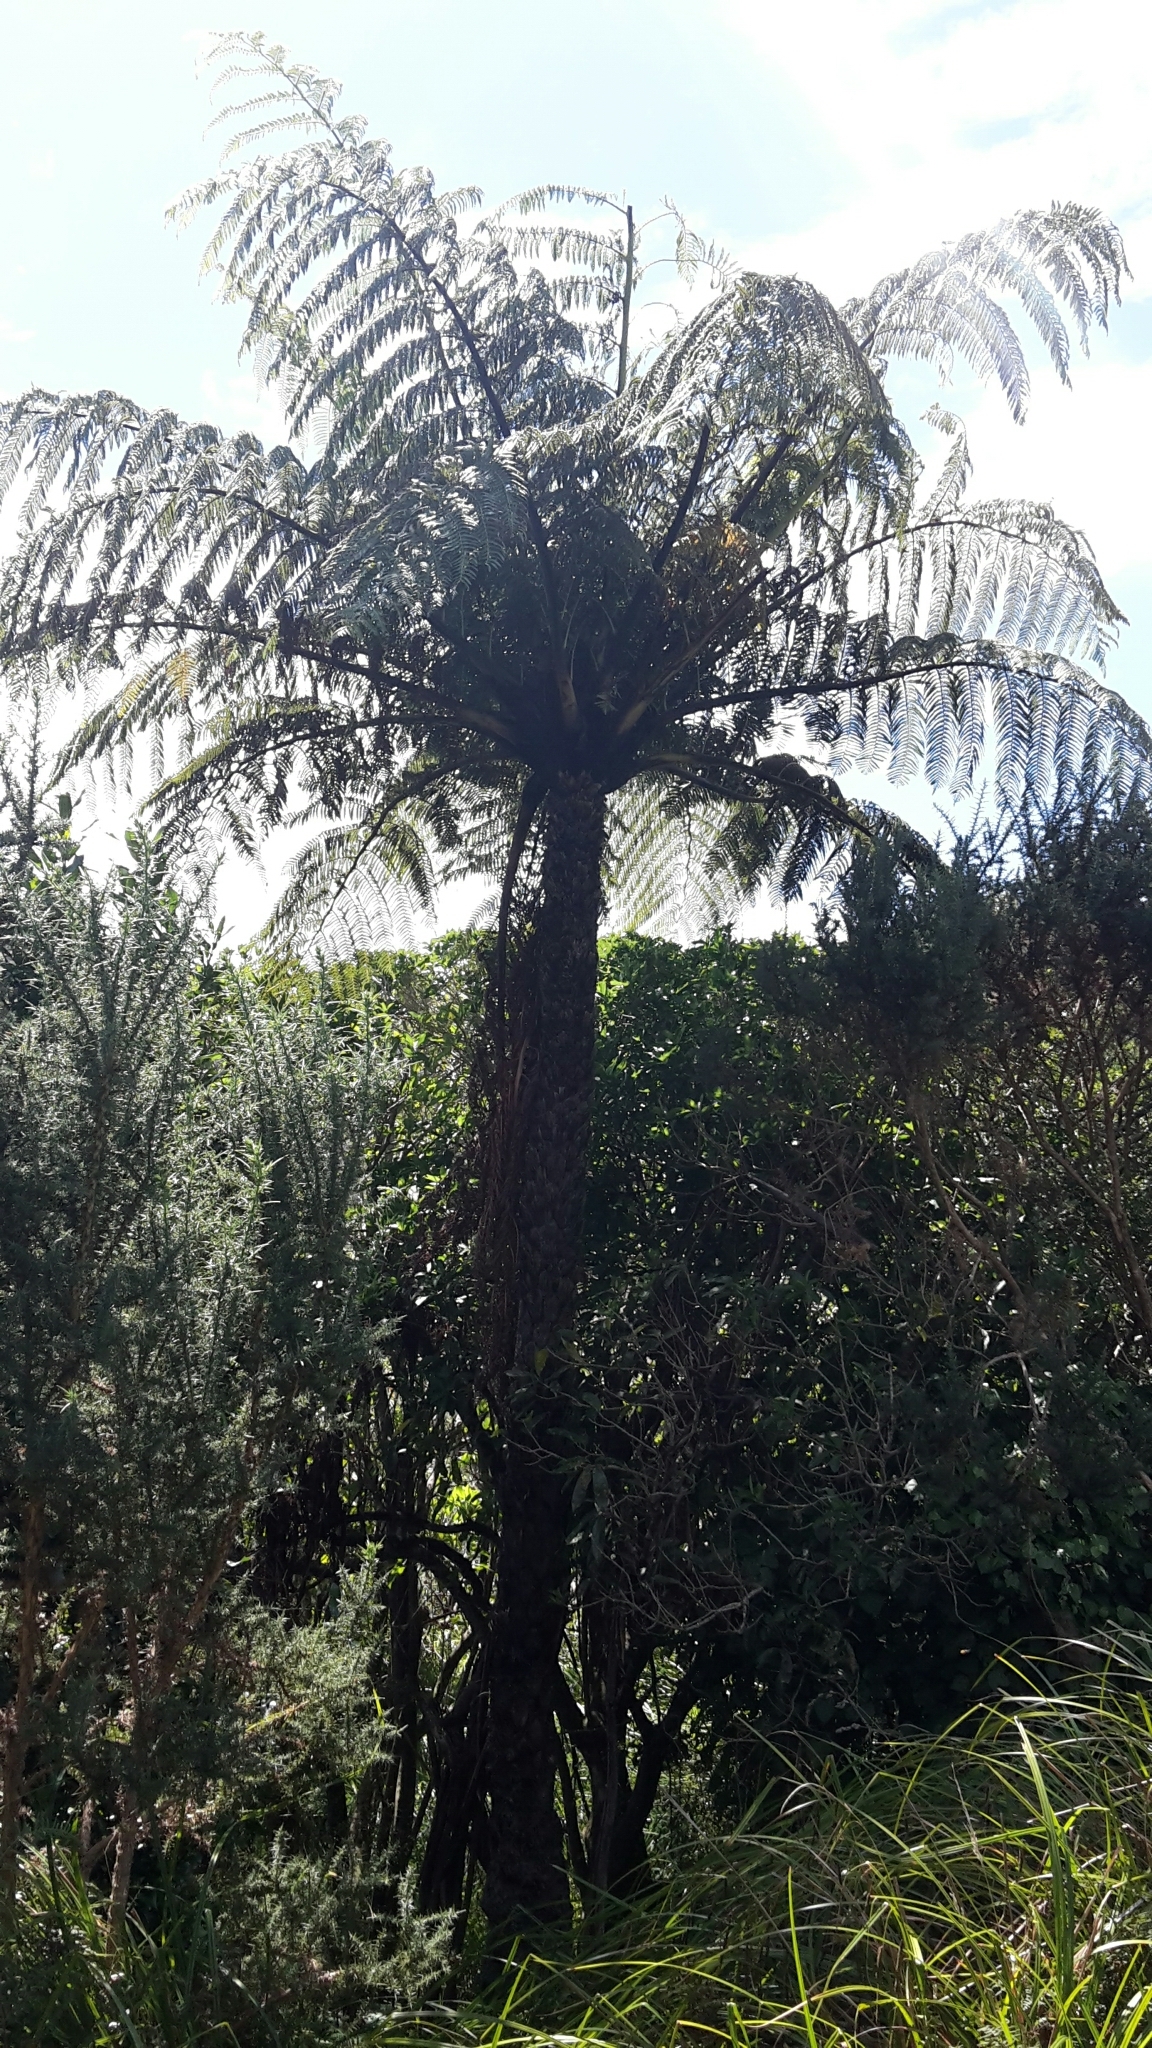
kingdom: Plantae
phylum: Tracheophyta
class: Polypodiopsida
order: Cyatheales
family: Cyatheaceae
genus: Sphaeropteris
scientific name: Sphaeropteris medullaris
